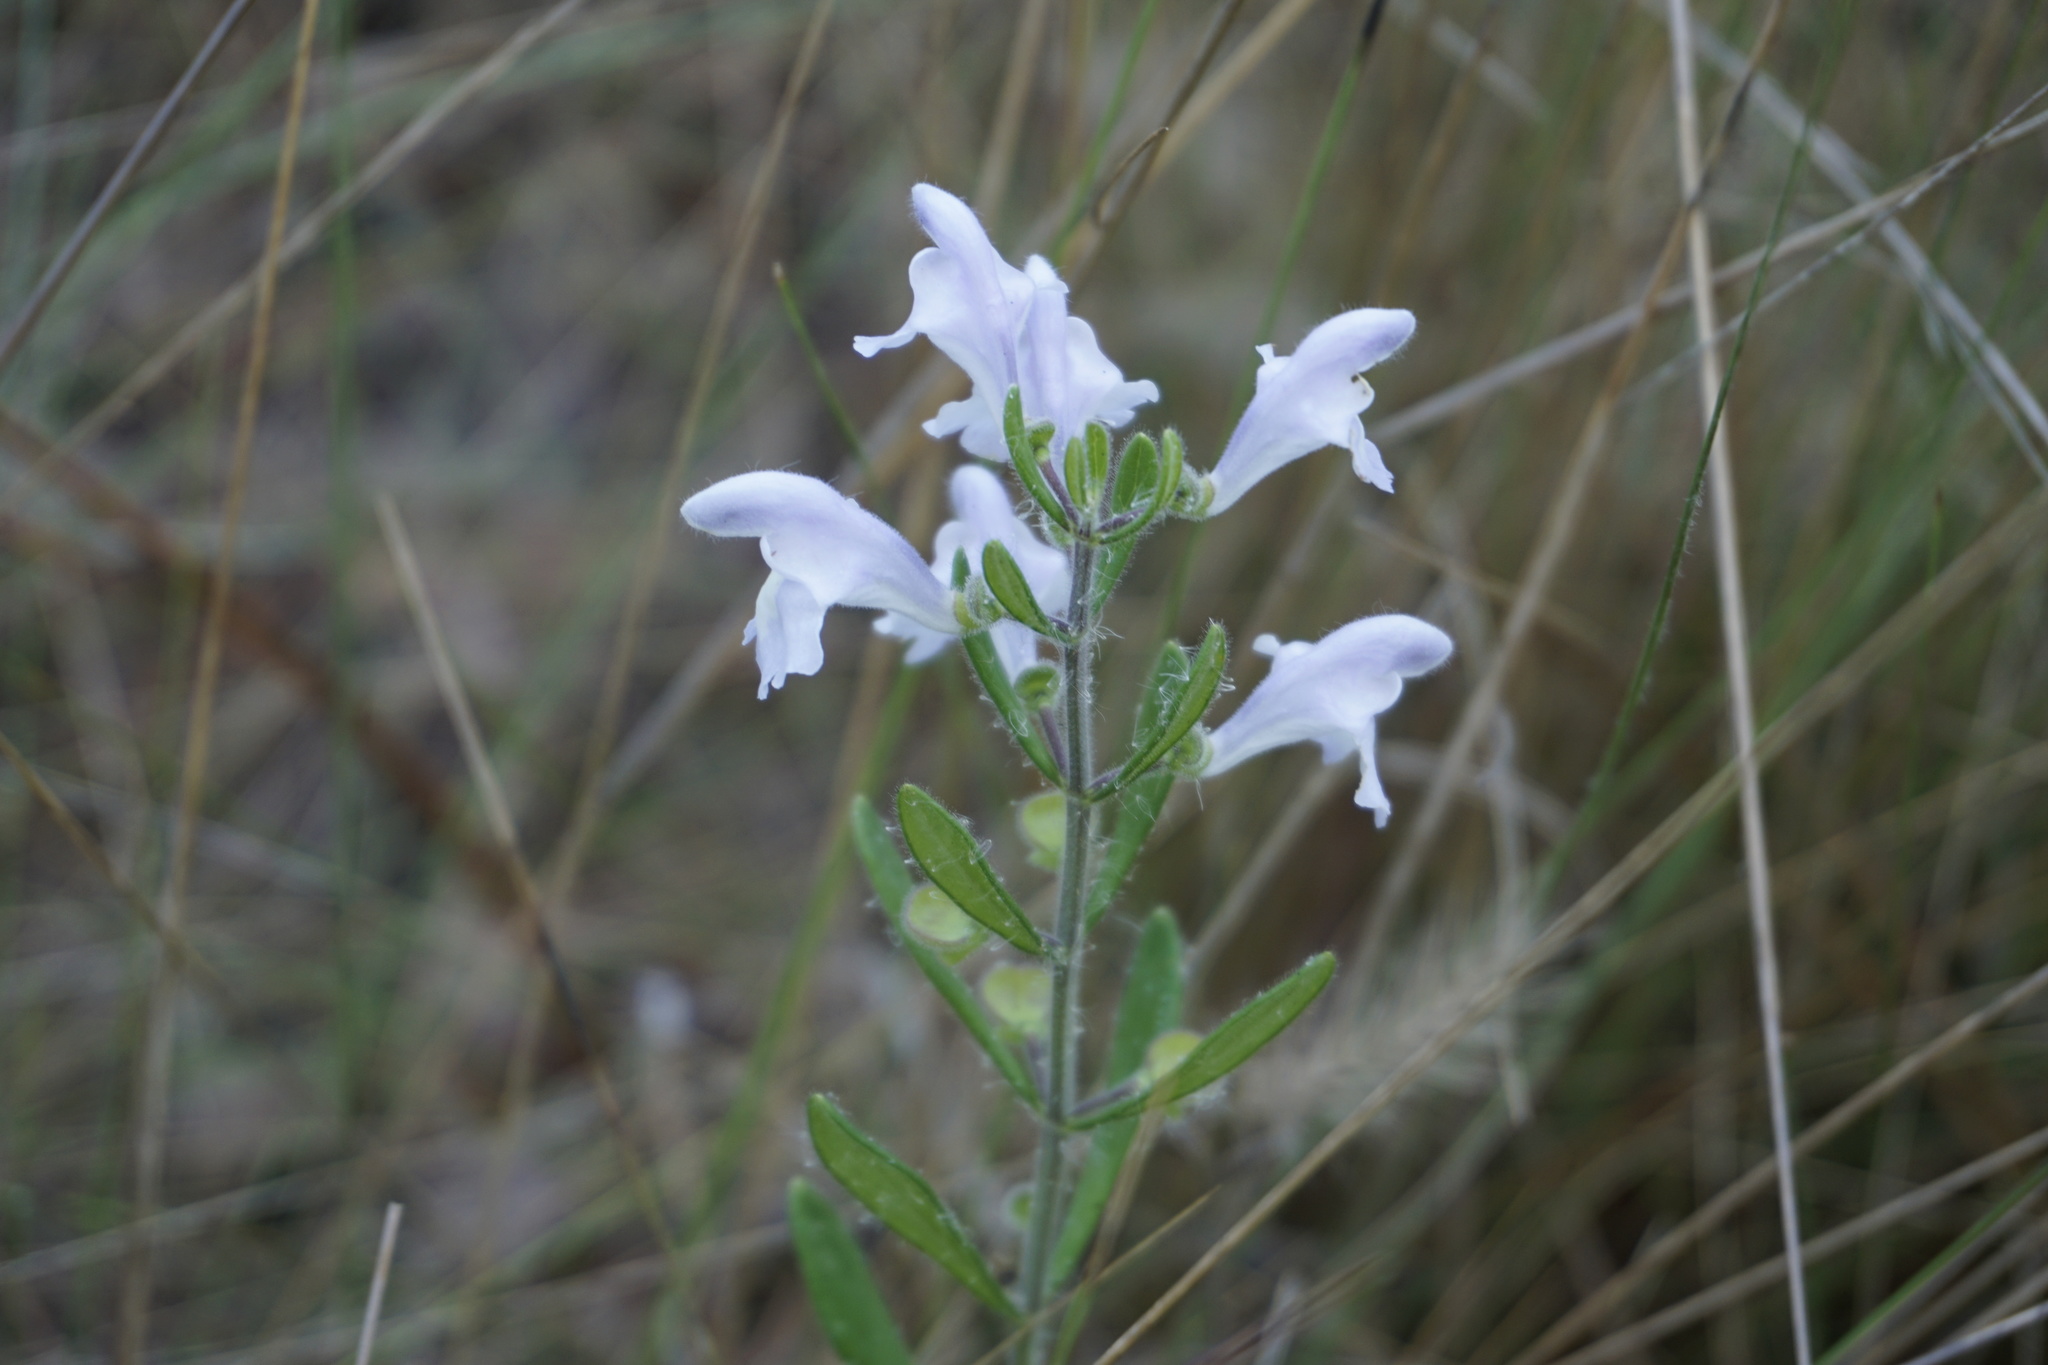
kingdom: Plantae
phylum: Tracheophyta
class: Magnoliopsida
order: Lamiales
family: Lamiaceae
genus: Scutellaria
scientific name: Scutellaria multiglandulosa
